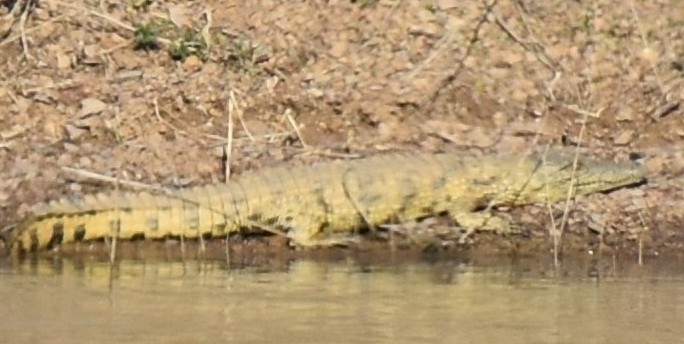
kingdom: Animalia
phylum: Chordata
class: Crocodylia
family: Crocodylidae
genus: Crocodylus
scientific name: Crocodylus niloticus
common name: Nile crocodile
